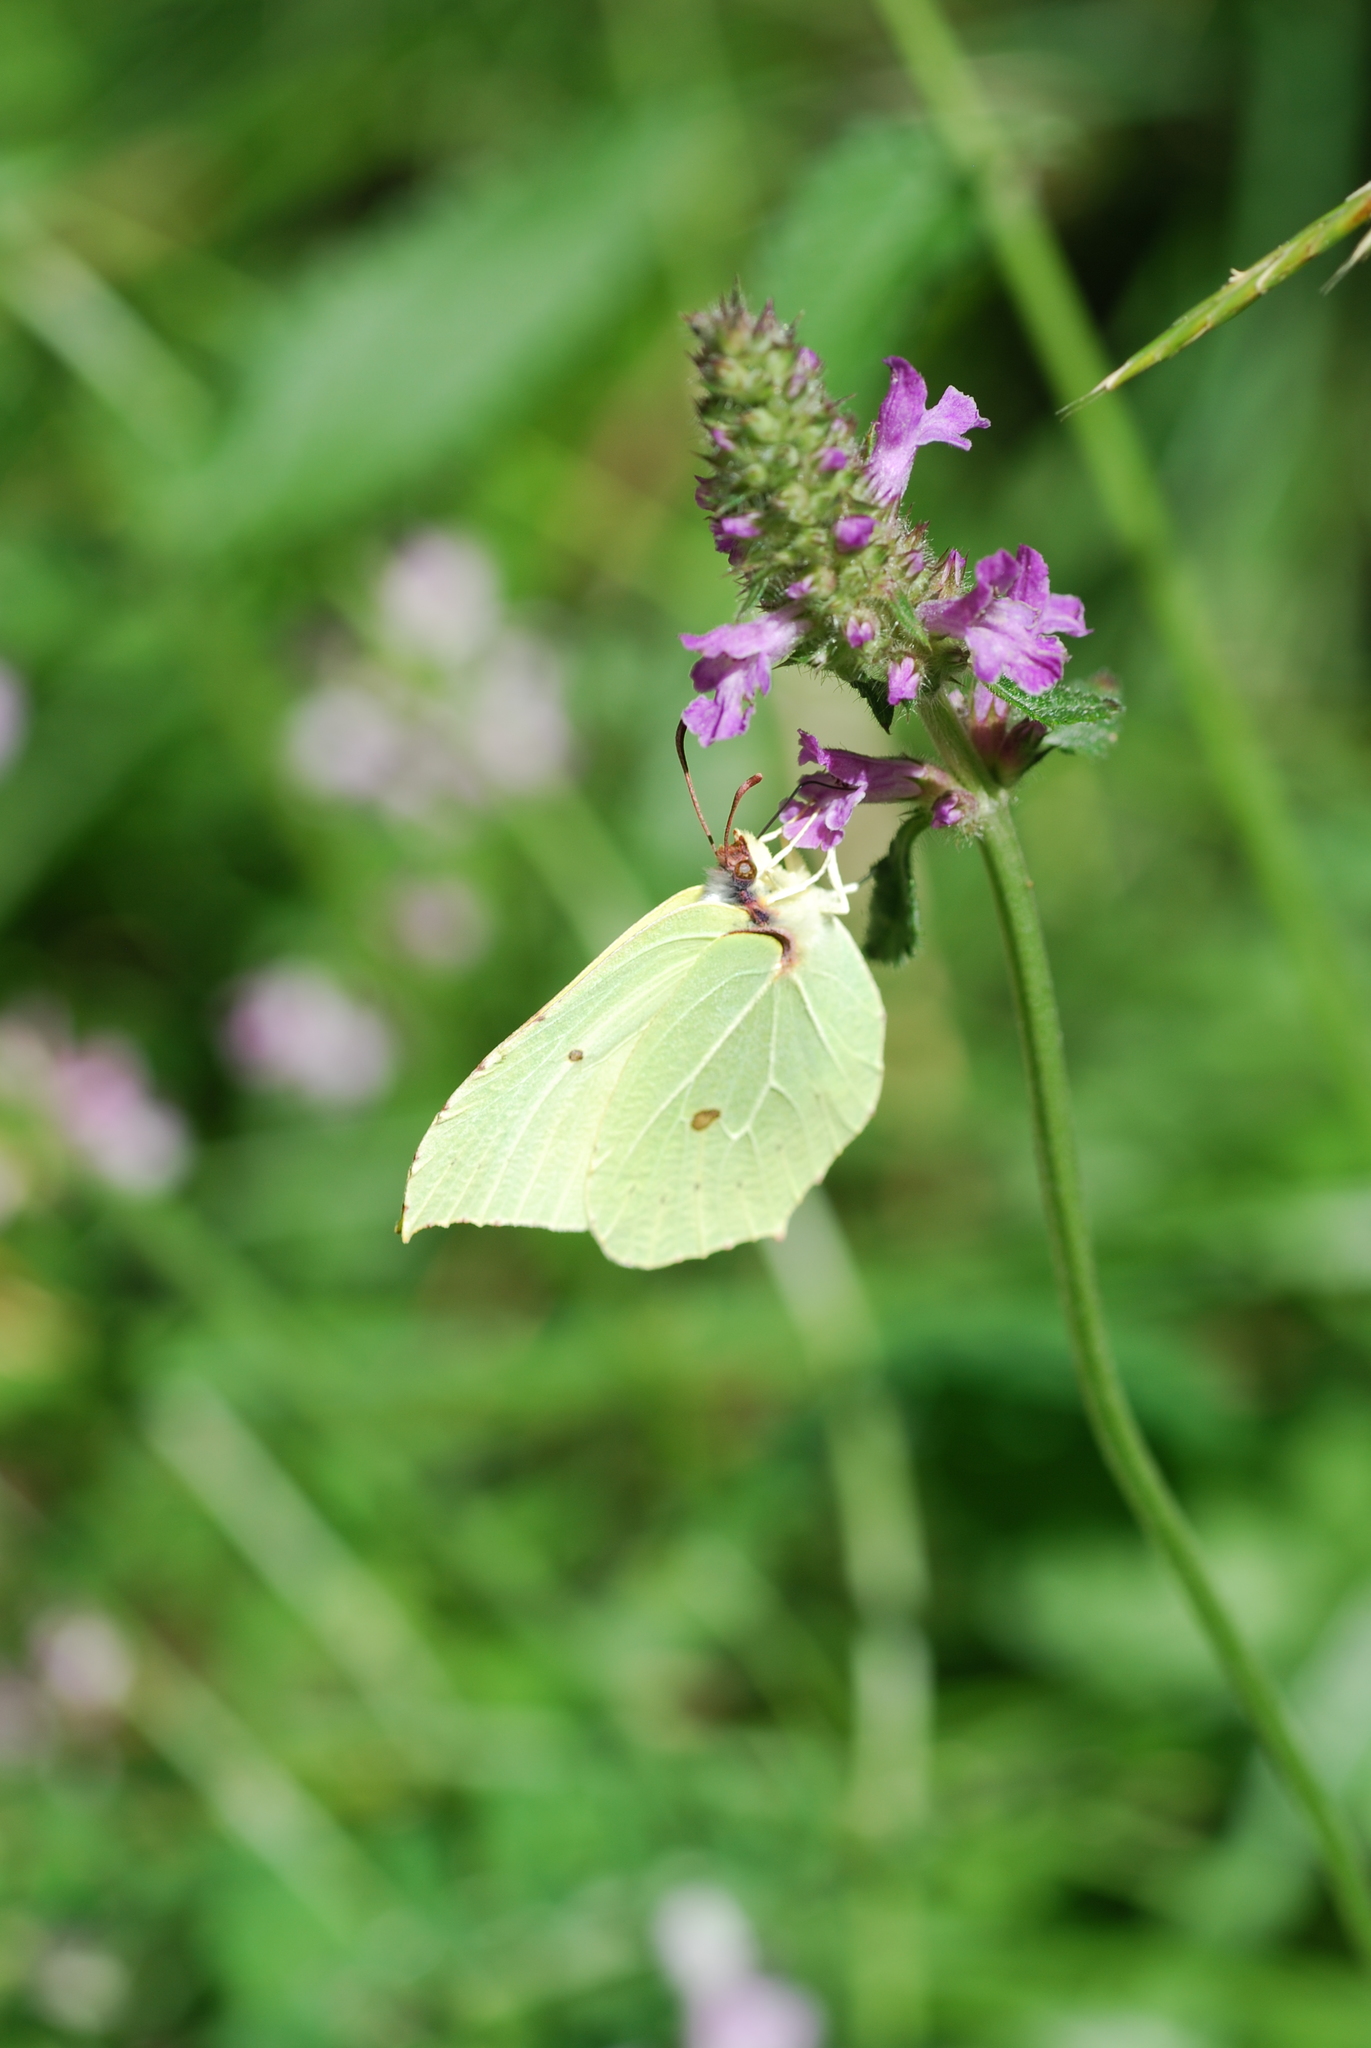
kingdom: Animalia
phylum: Arthropoda
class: Insecta
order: Lepidoptera
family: Pieridae
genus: Gonepteryx
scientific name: Gonepteryx rhamni
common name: Brimstone
